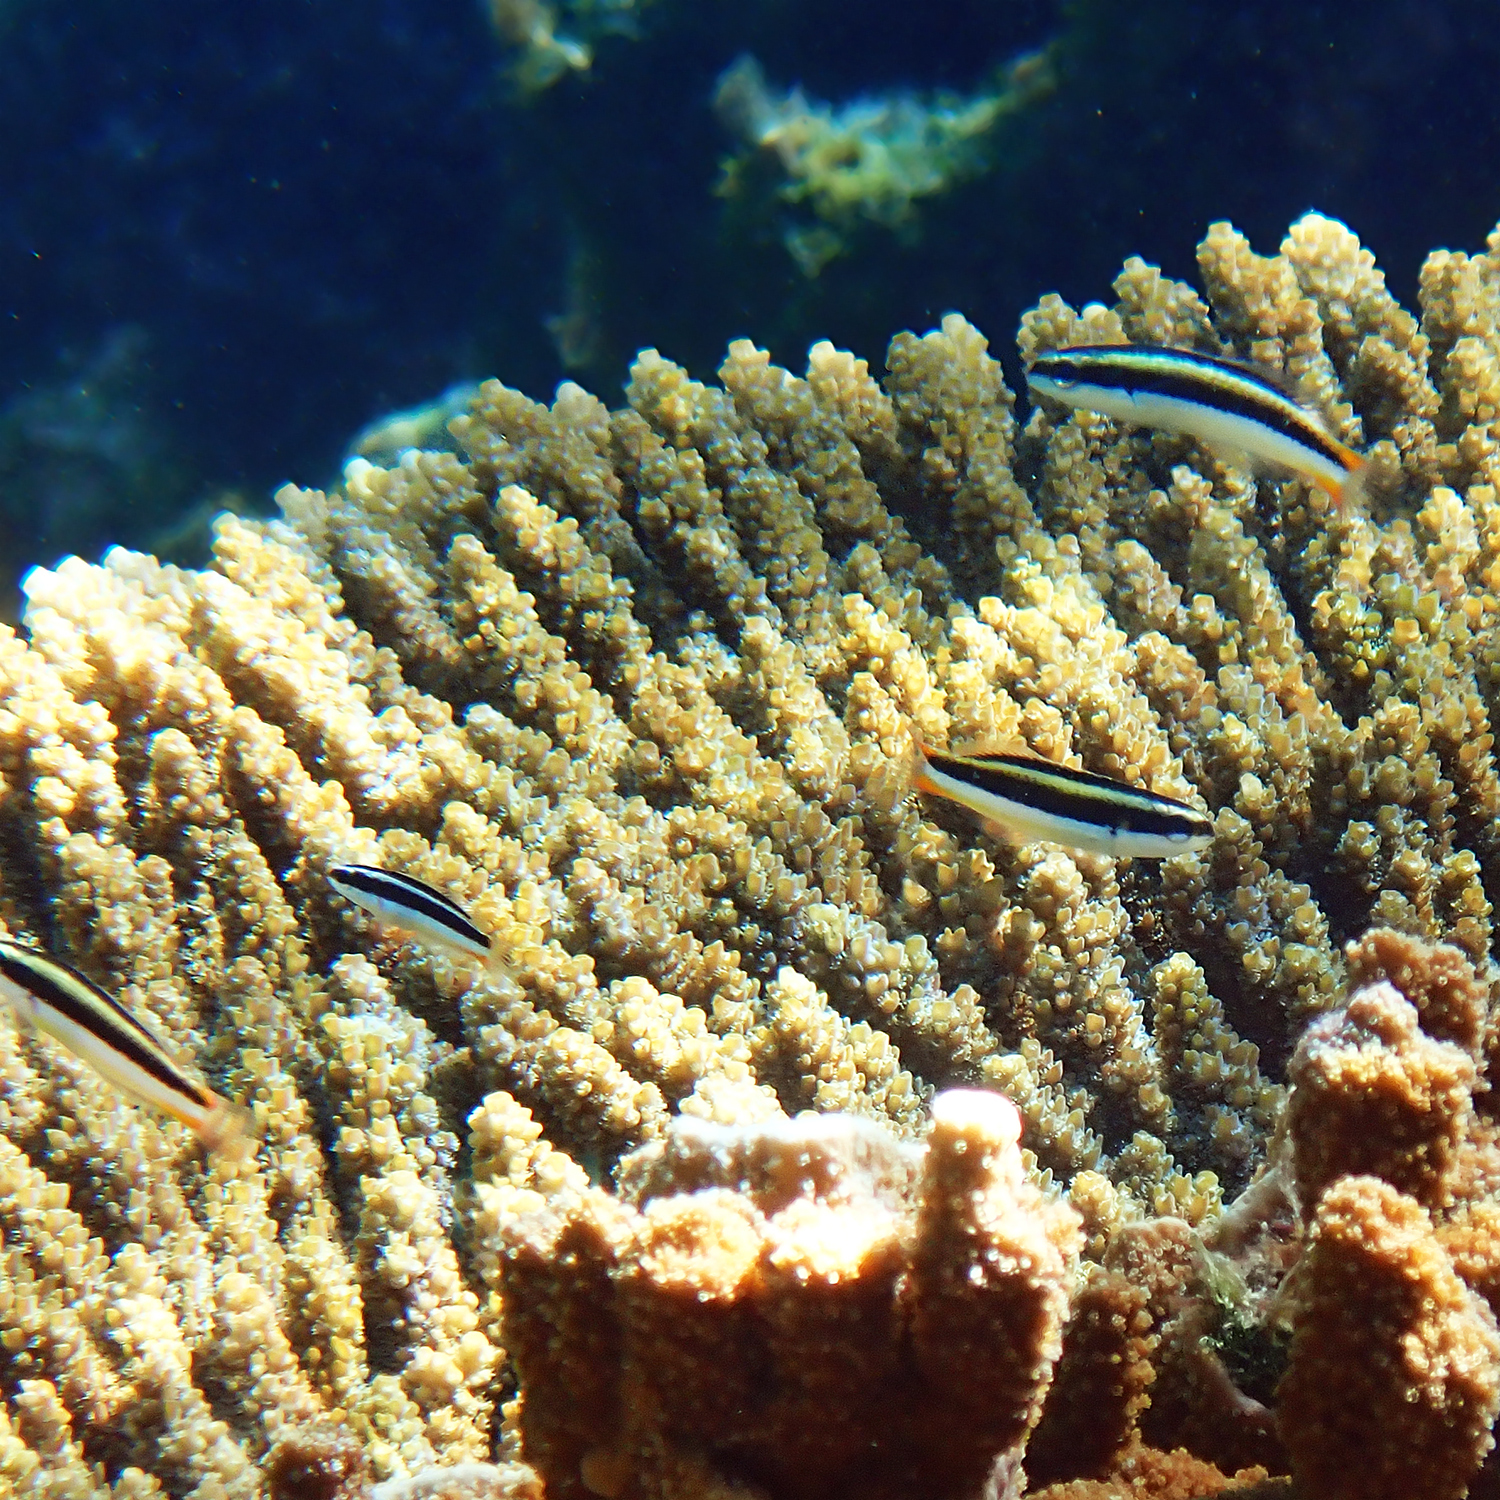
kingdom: Animalia
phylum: Chordata
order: Perciformes
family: Labridae
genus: Thalassoma
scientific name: Thalassoma amblycephalum
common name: Bluehead wrasse
